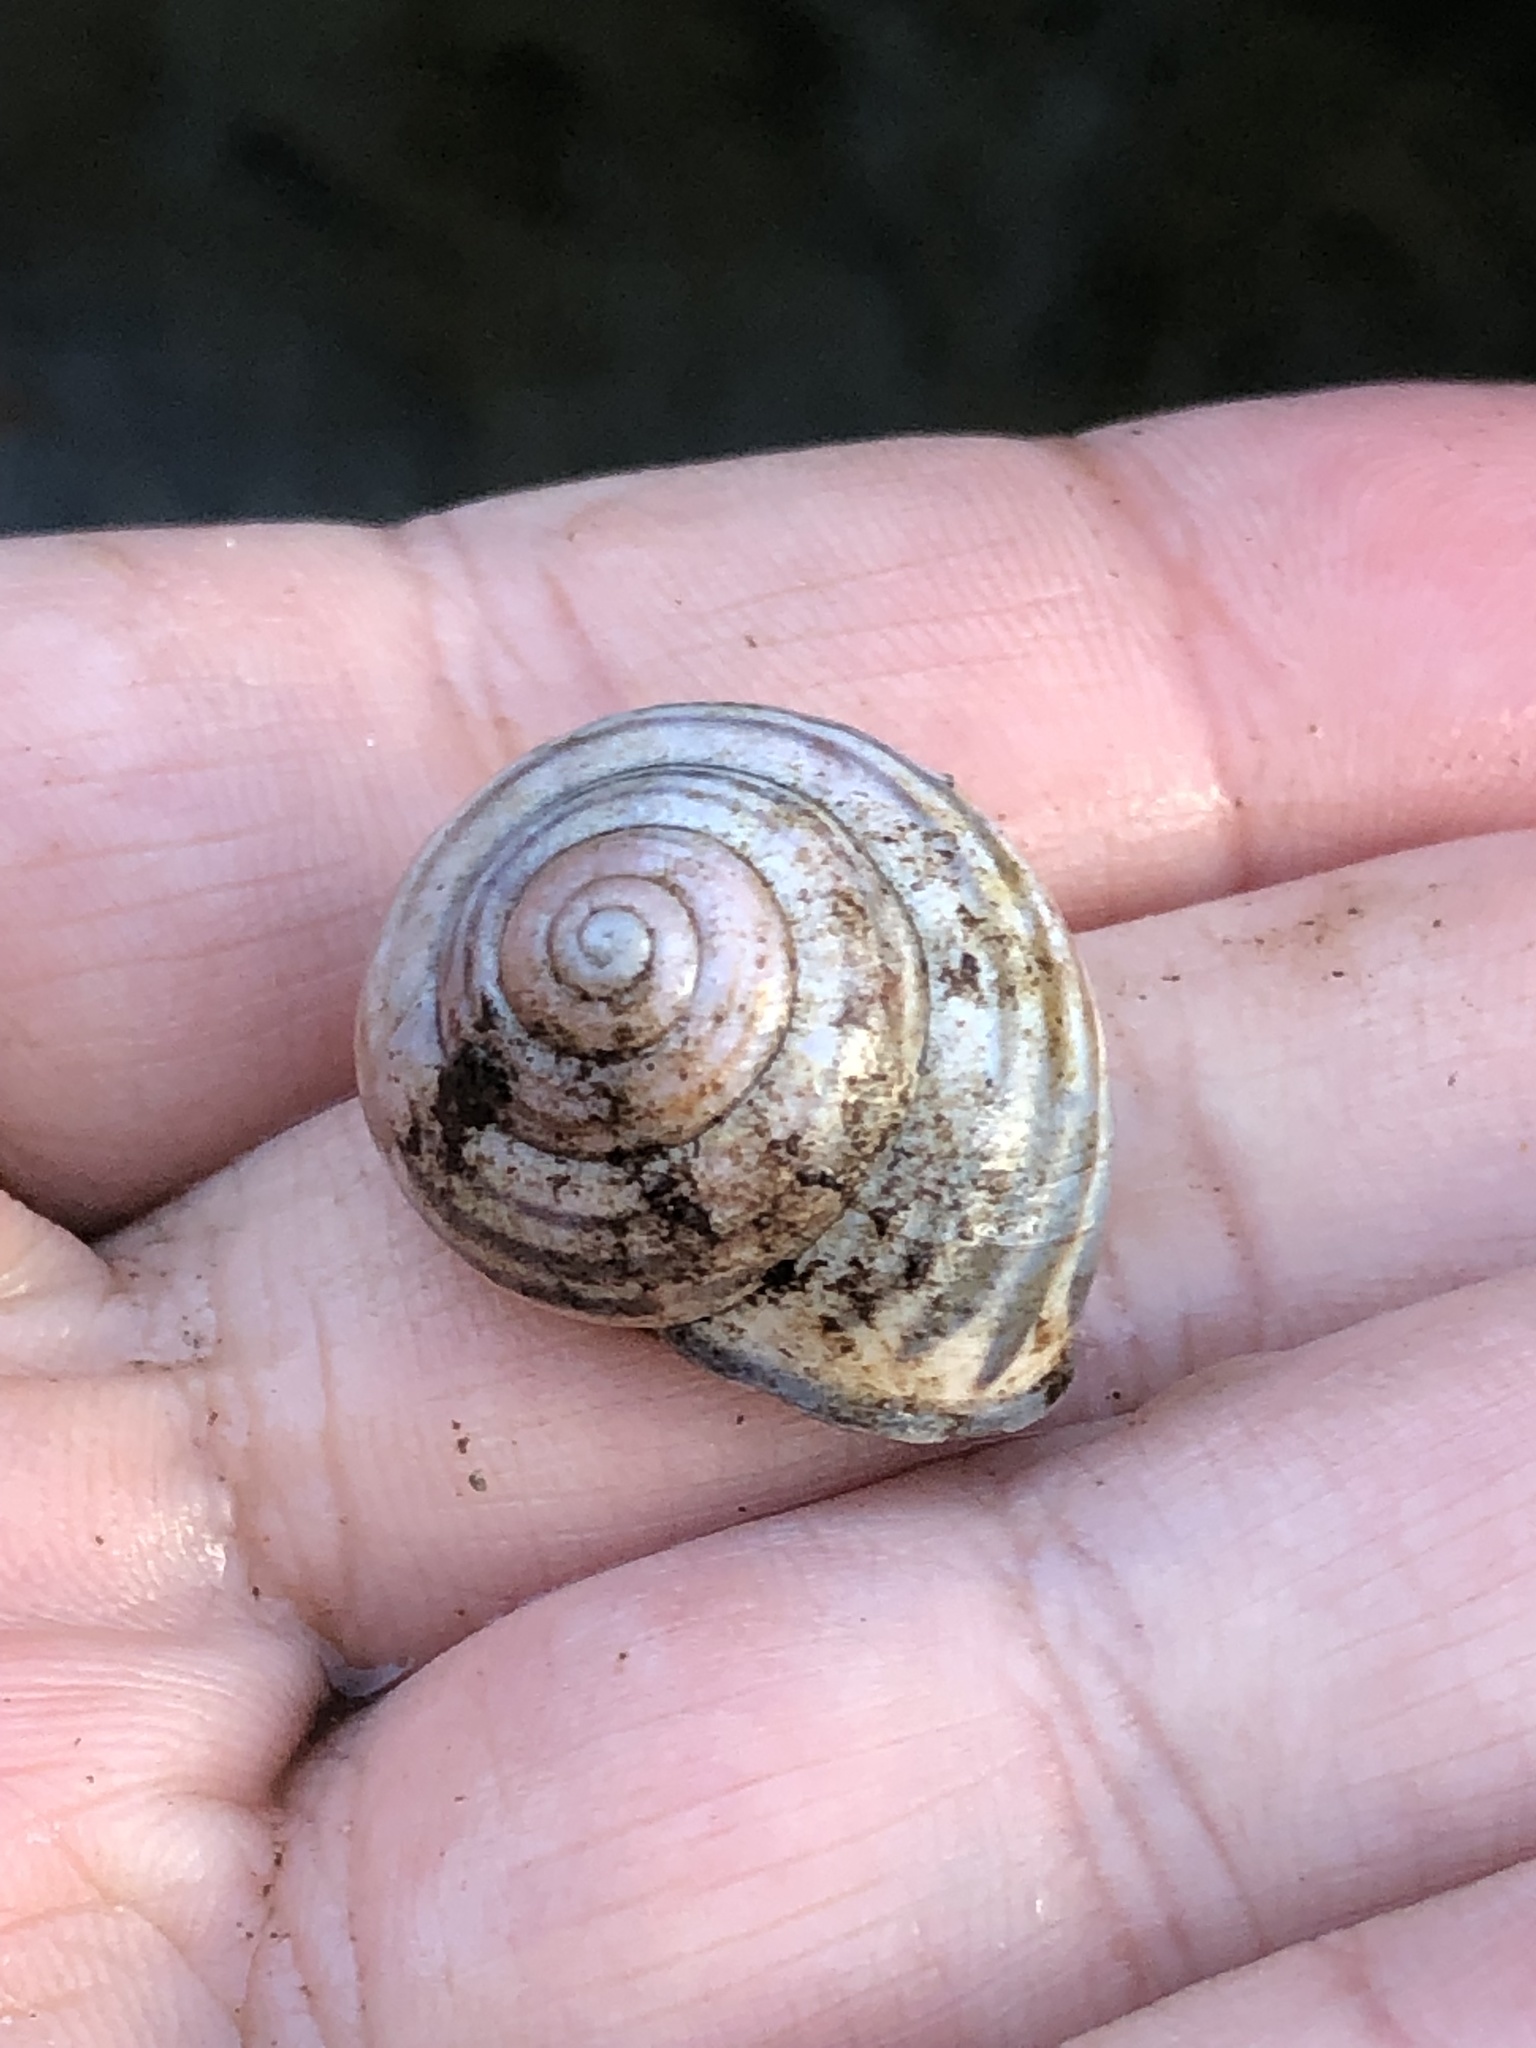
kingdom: Animalia
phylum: Mollusca
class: Gastropoda
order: Stylommatophora
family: Helicidae
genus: Cepaea
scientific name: Cepaea nemoralis
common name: Grovesnail
